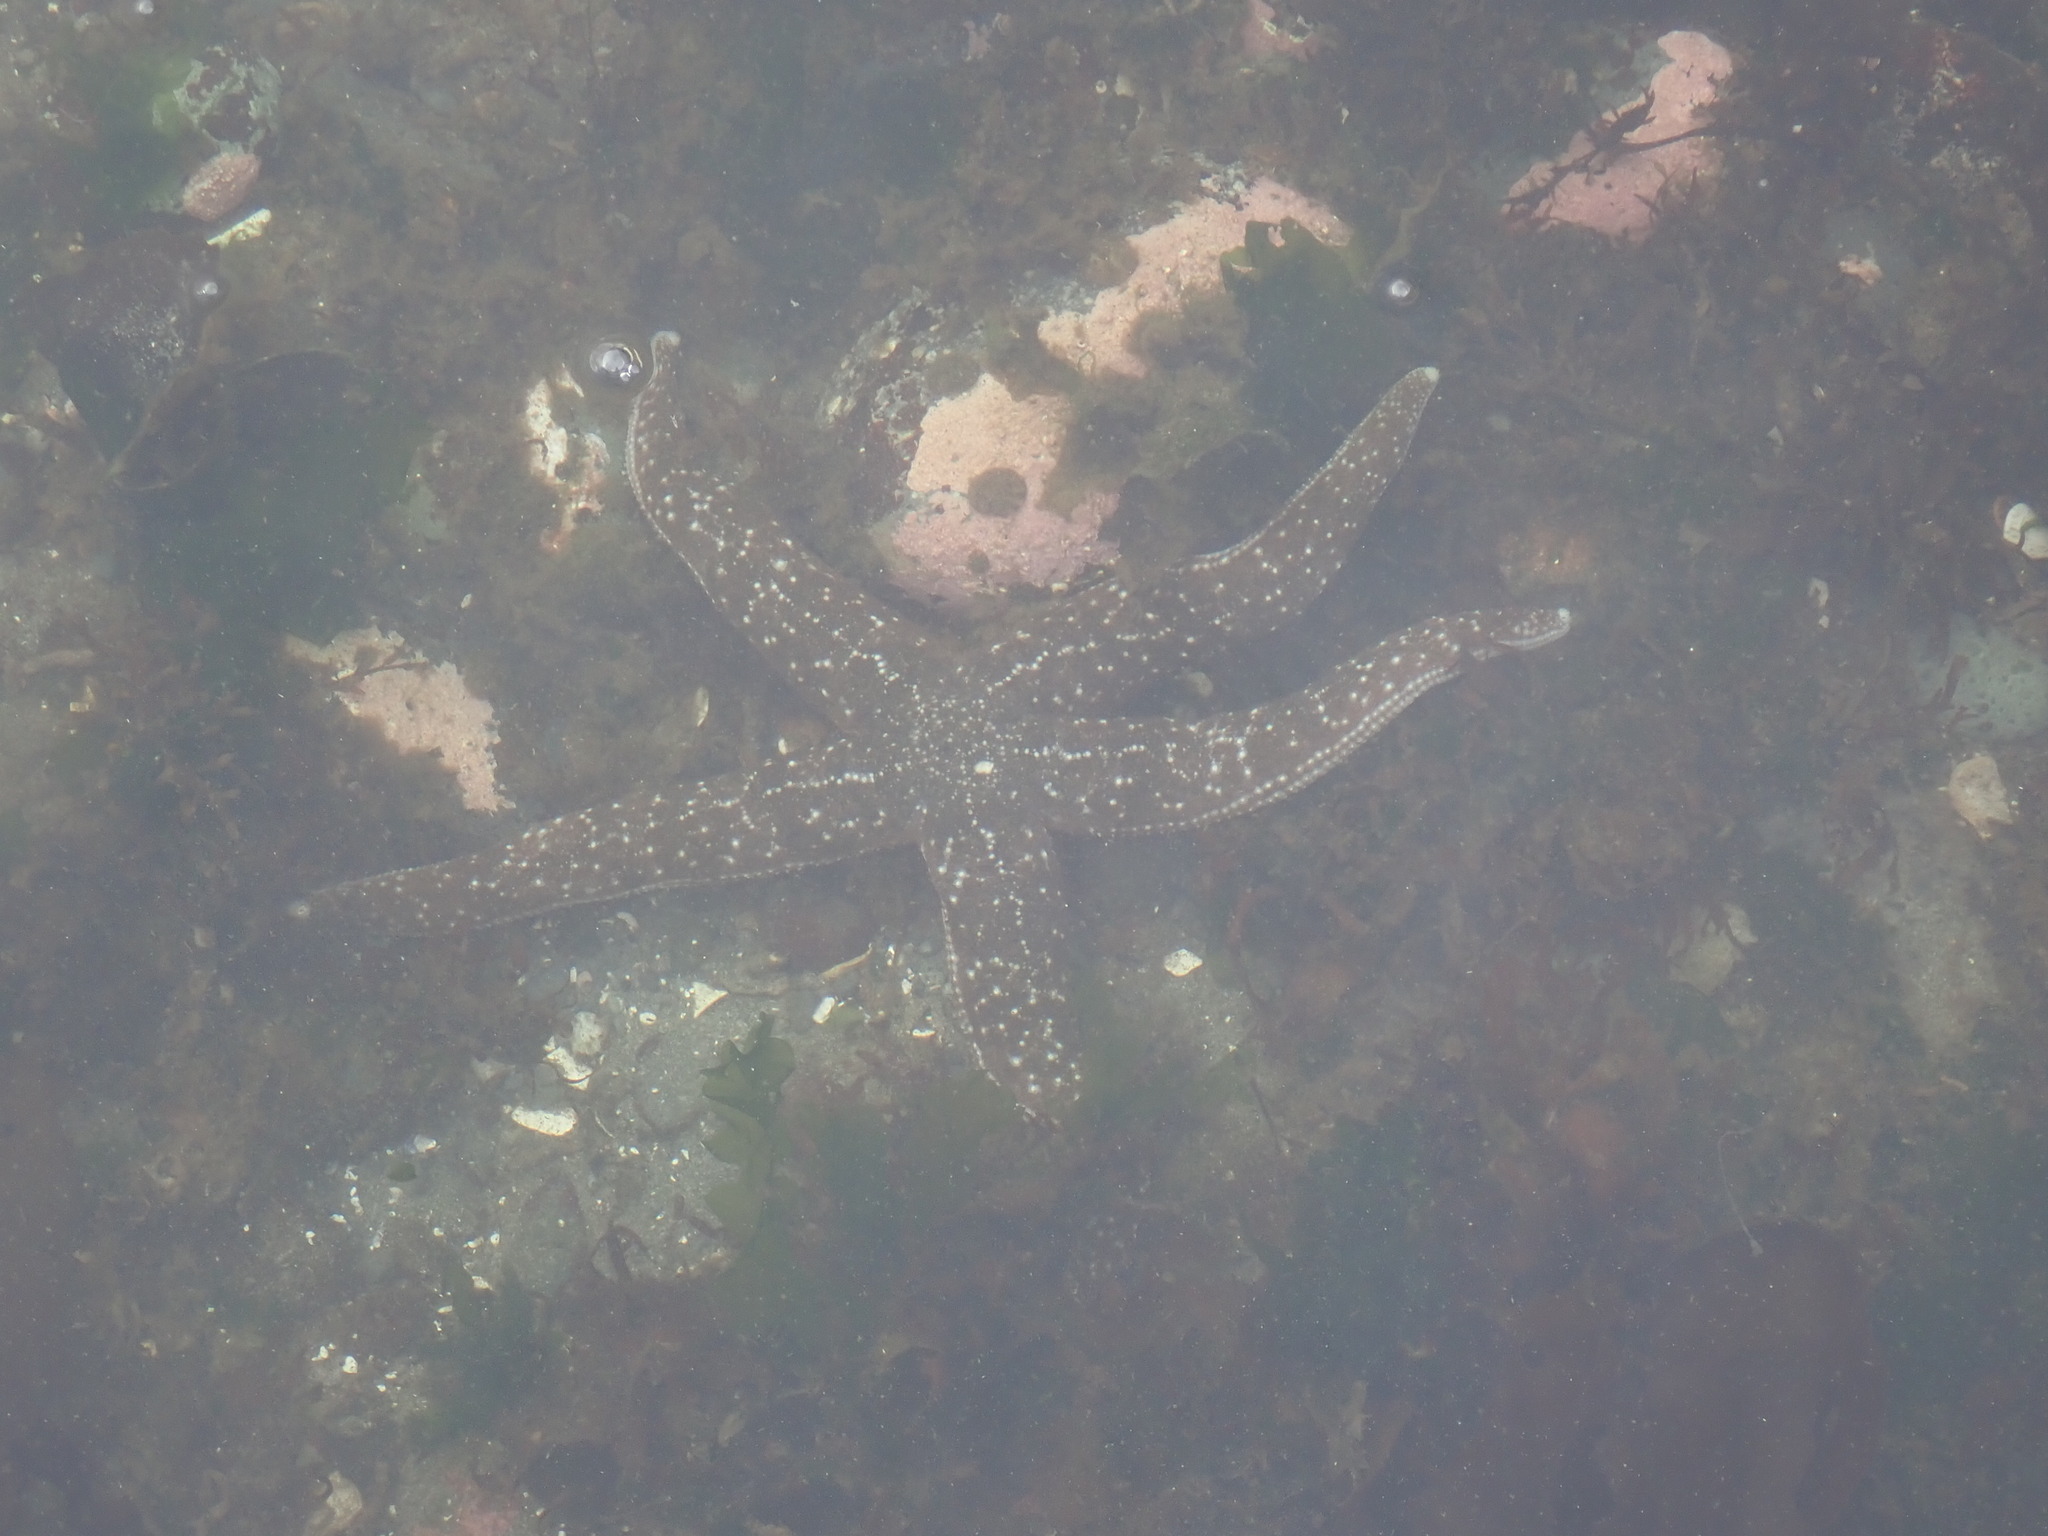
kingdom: Animalia
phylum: Echinodermata
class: Asteroidea
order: Forcipulatida
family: Asteriidae
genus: Evasterias
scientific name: Evasterias troschelii
